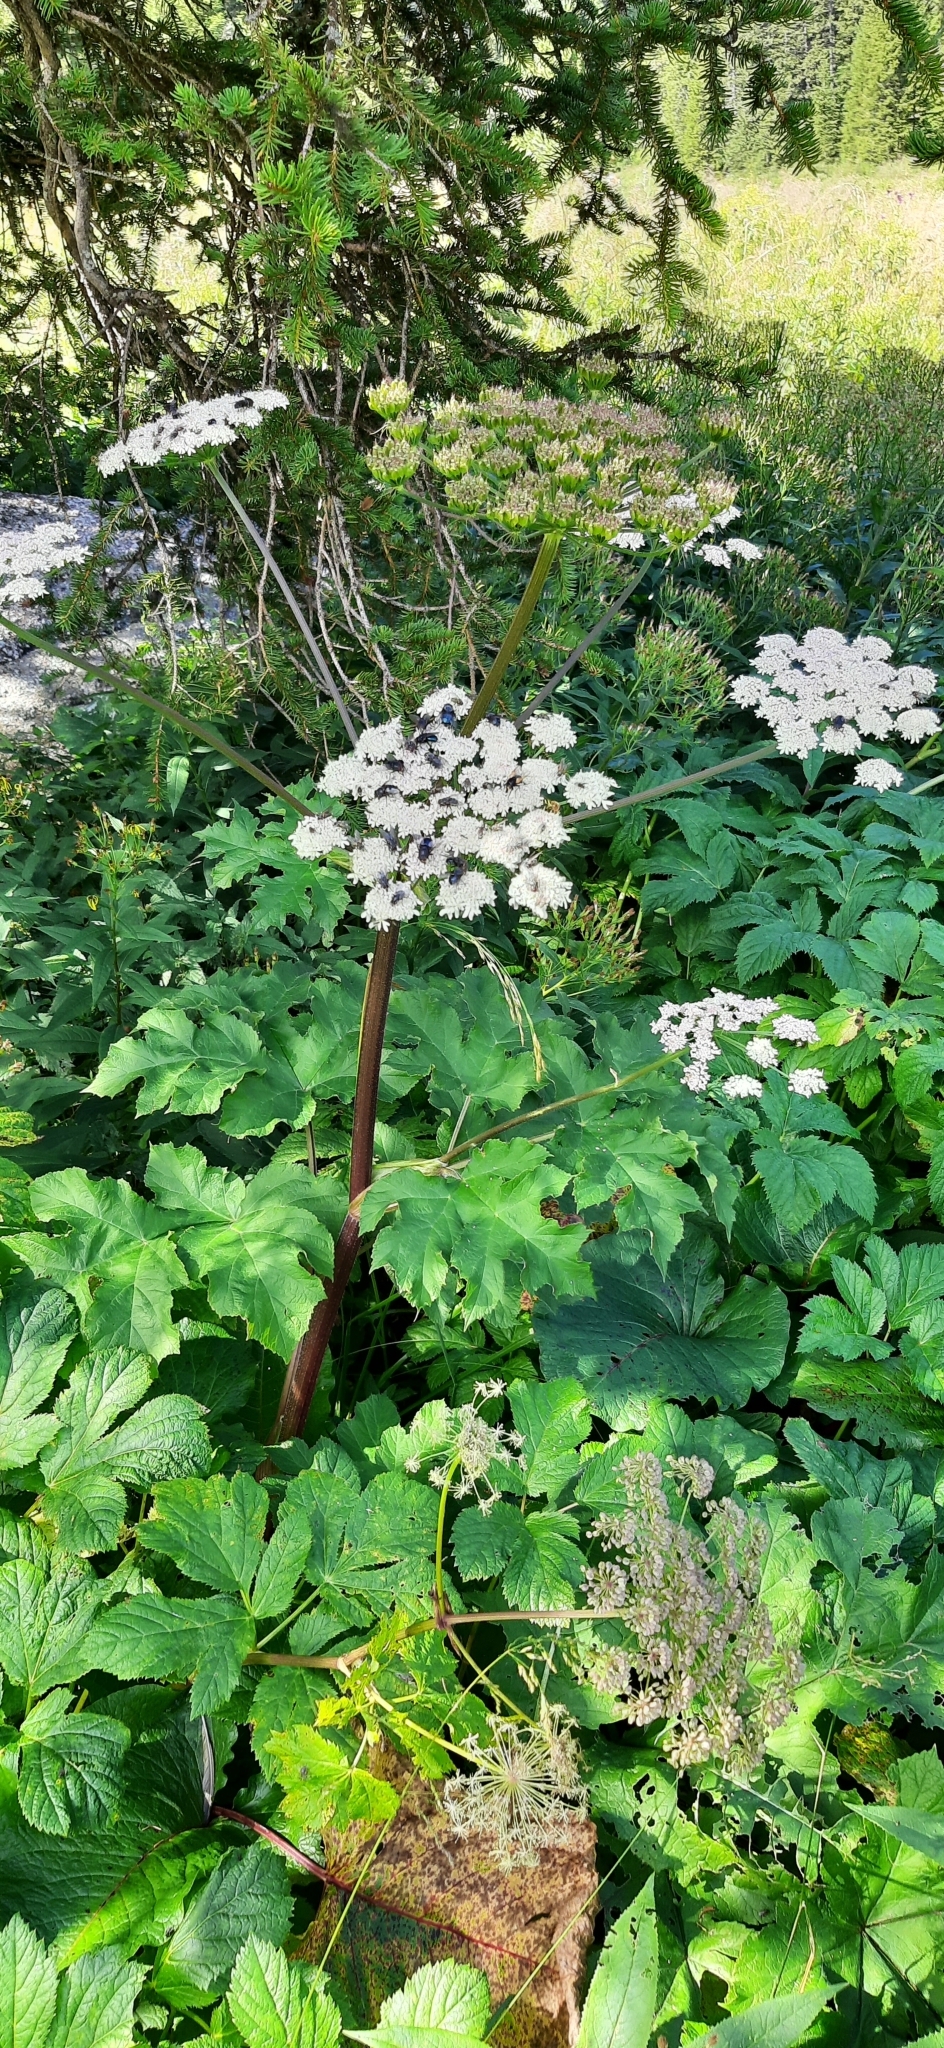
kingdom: Plantae
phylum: Tracheophyta
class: Magnoliopsida
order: Apiales
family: Apiaceae
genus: Heracleum
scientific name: Heracleum sphondylium
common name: Hogweed
